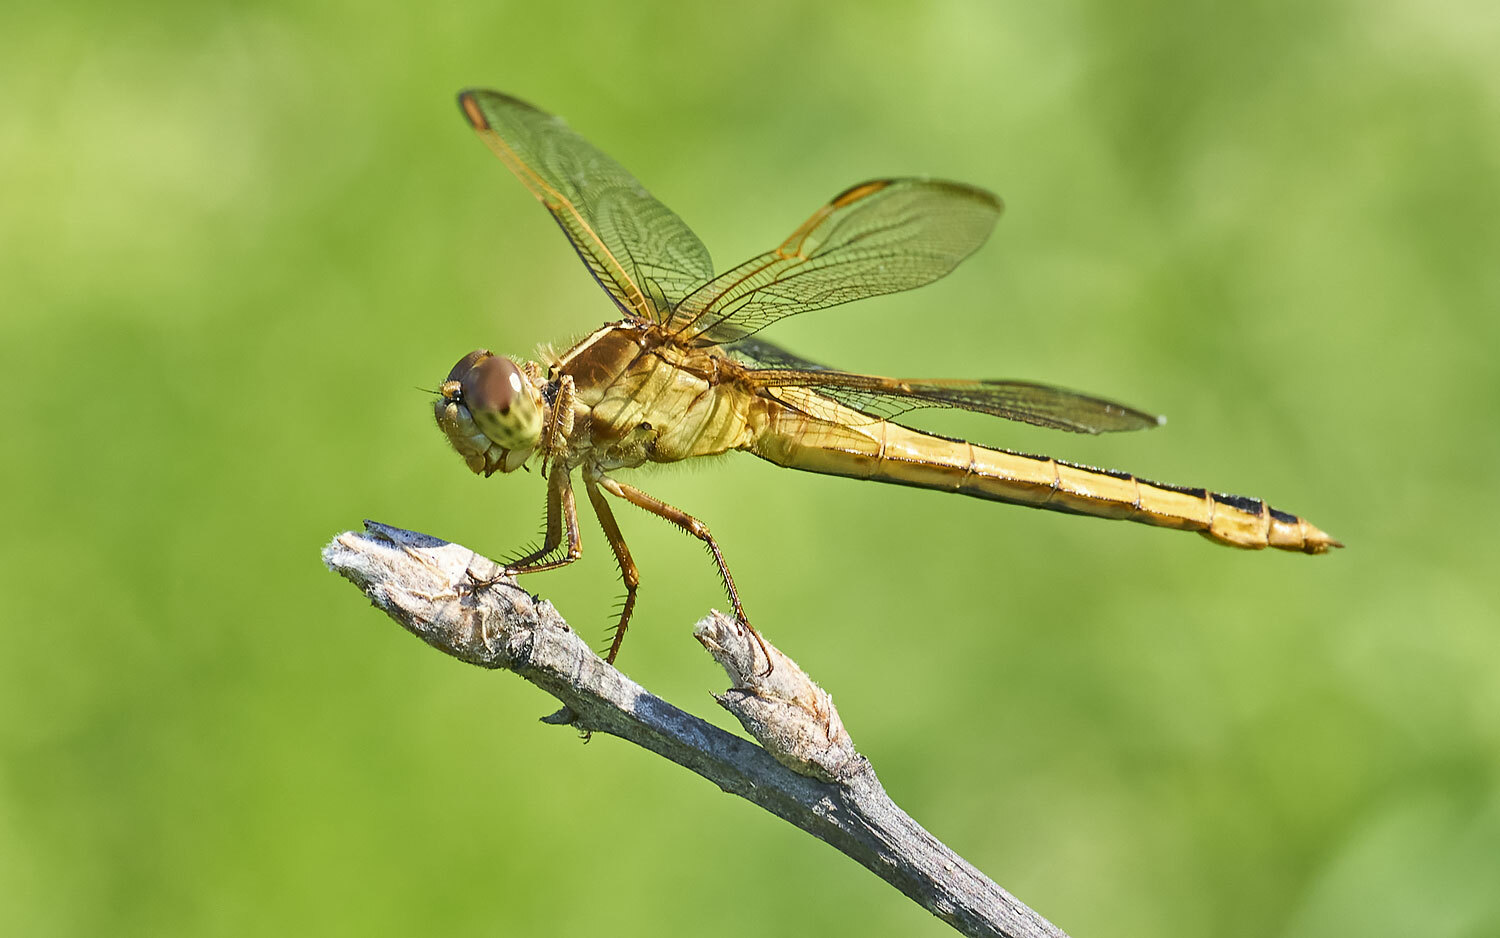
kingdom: Animalia
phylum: Arthropoda
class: Insecta
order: Odonata
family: Libellulidae
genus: Libellula
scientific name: Libellula needhami
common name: Needham's skimmer
